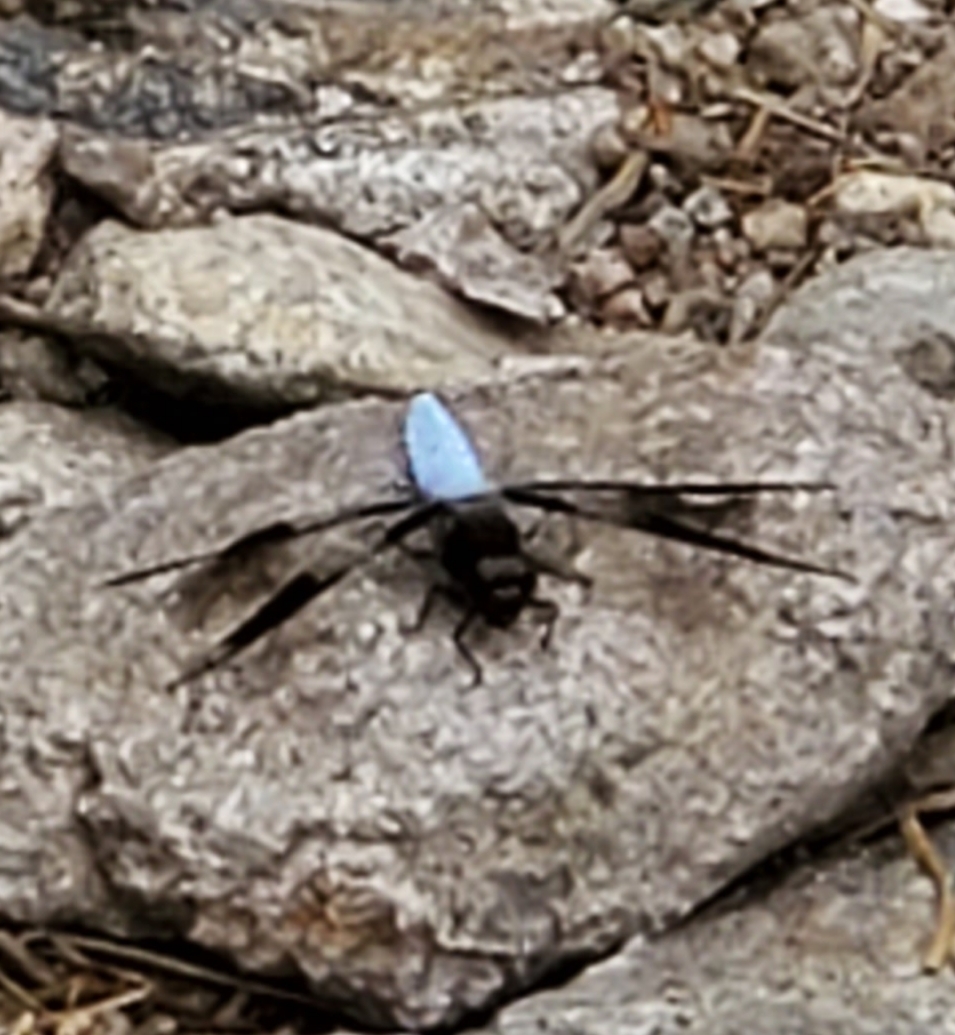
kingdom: Animalia
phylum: Arthropoda
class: Insecta
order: Odonata
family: Libellulidae
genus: Plathemis
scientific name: Plathemis lydia
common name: Common whitetail
